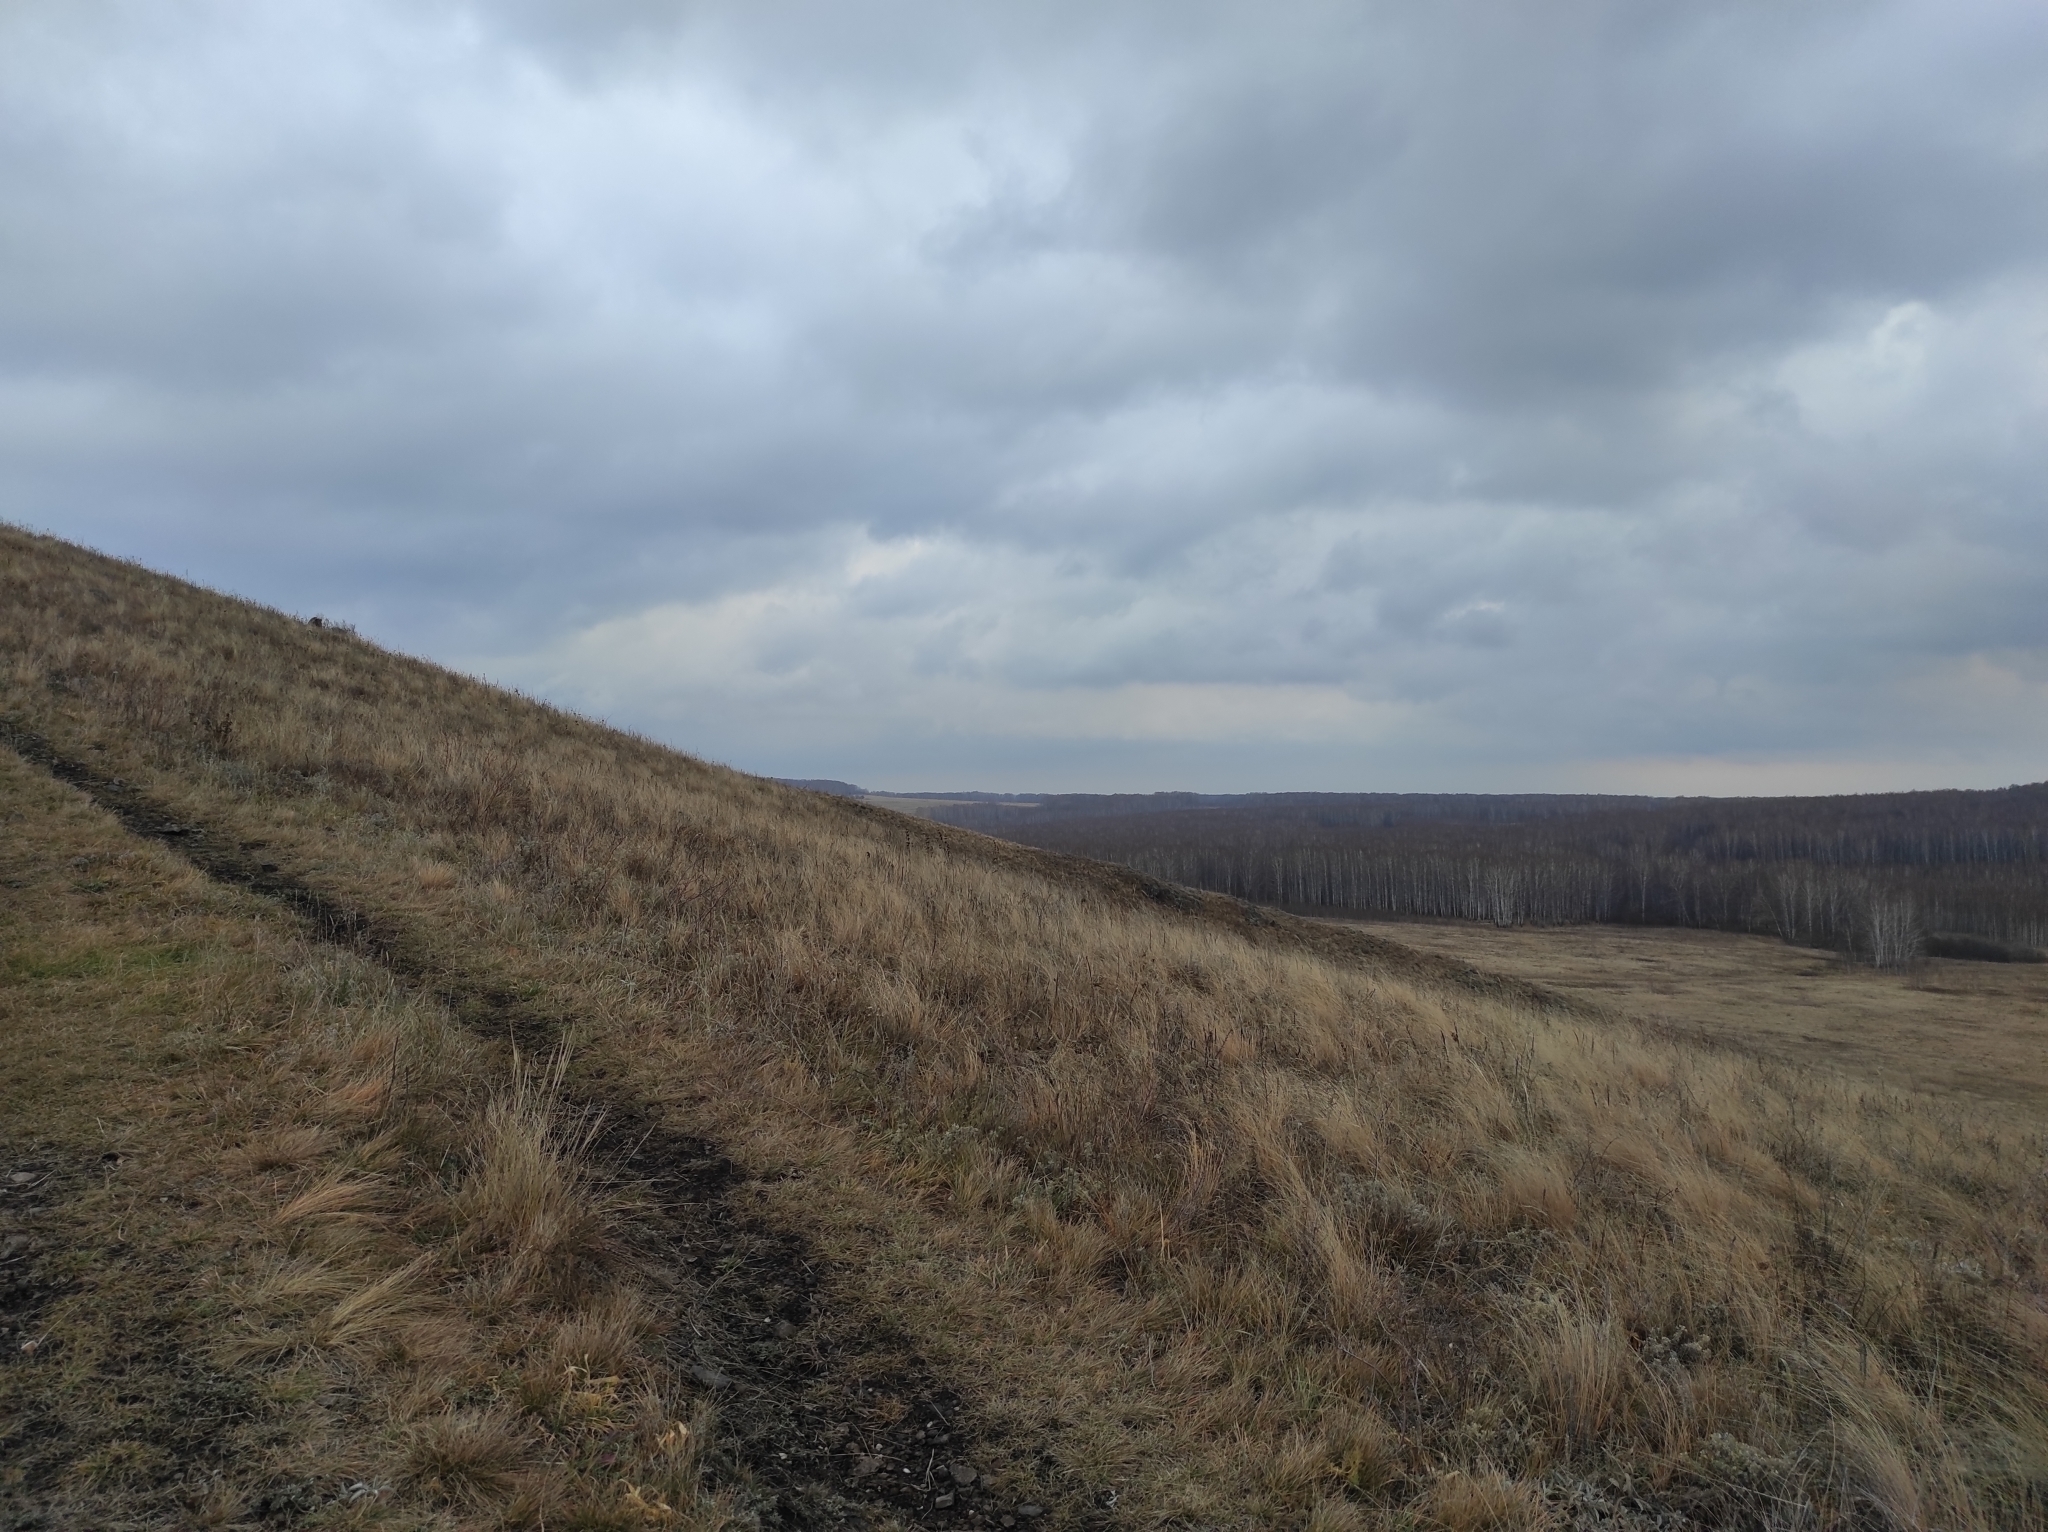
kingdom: Plantae
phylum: Tracheophyta
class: Magnoliopsida
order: Brassicales
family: Brassicaceae
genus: Odontarrhena
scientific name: Odontarrhena obovata
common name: American alyssum
